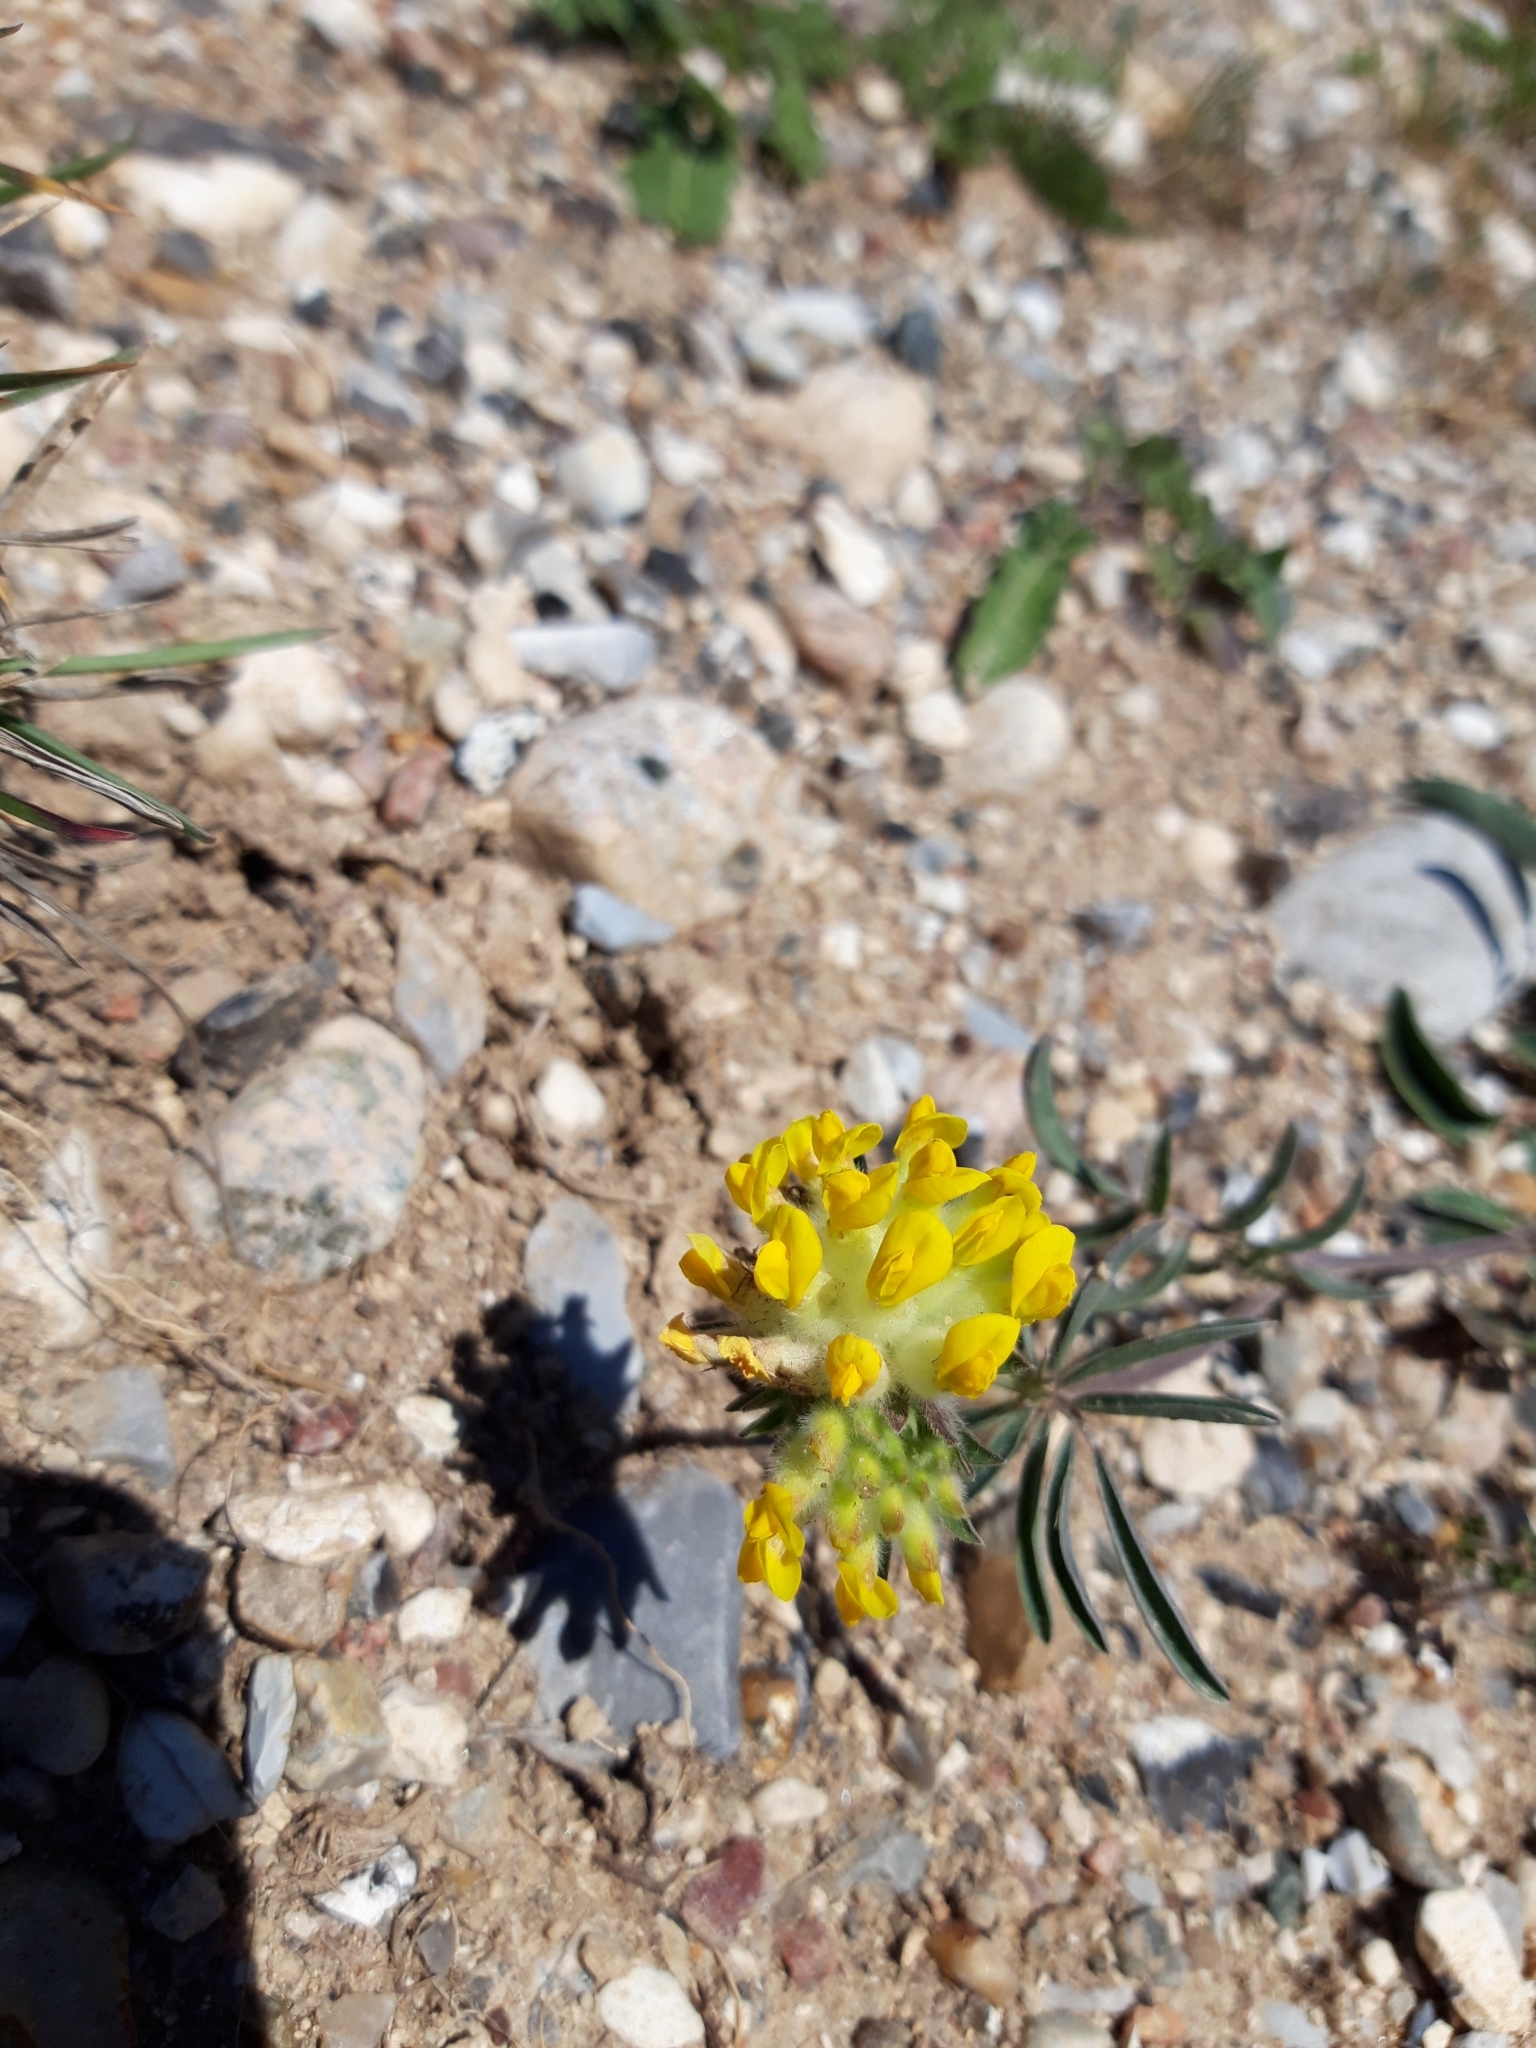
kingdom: Plantae
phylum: Tracheophyta
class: Magnoliopsida
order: Fabales
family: Fabaceae
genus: Anthyllis
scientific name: Anthyllis vulneraria
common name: Kidney vetch
